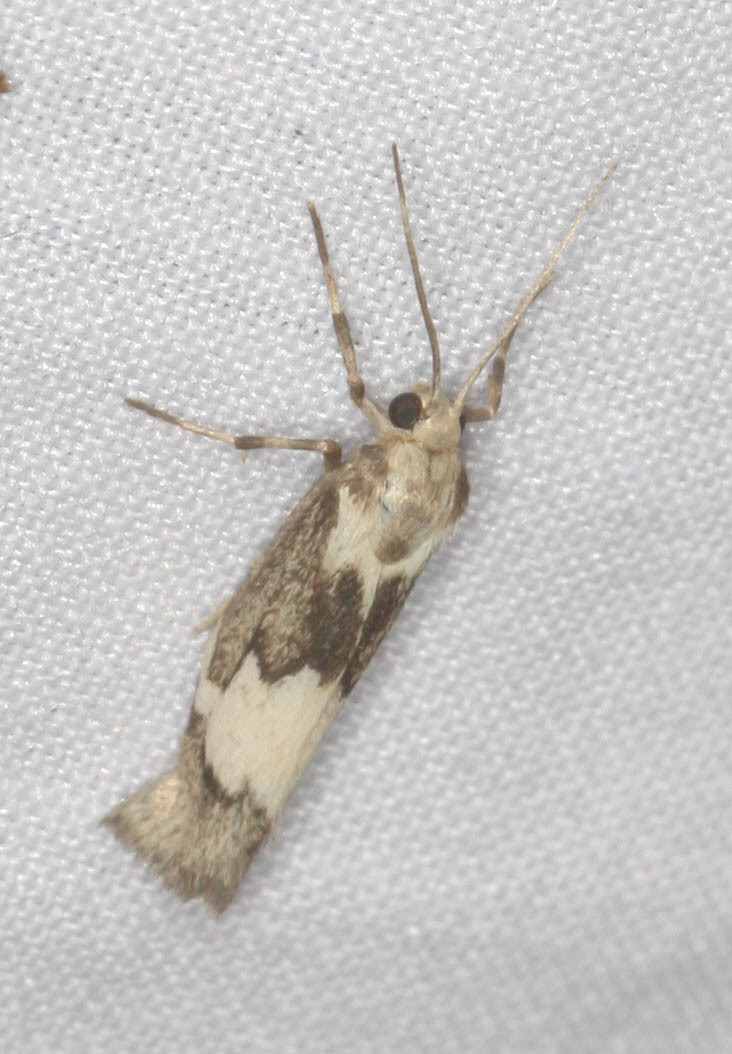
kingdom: Animalia
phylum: Arthropoda
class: Insecta
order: Lepidoptera
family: Erebidae
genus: Cisthene
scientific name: Cisthene deserta
